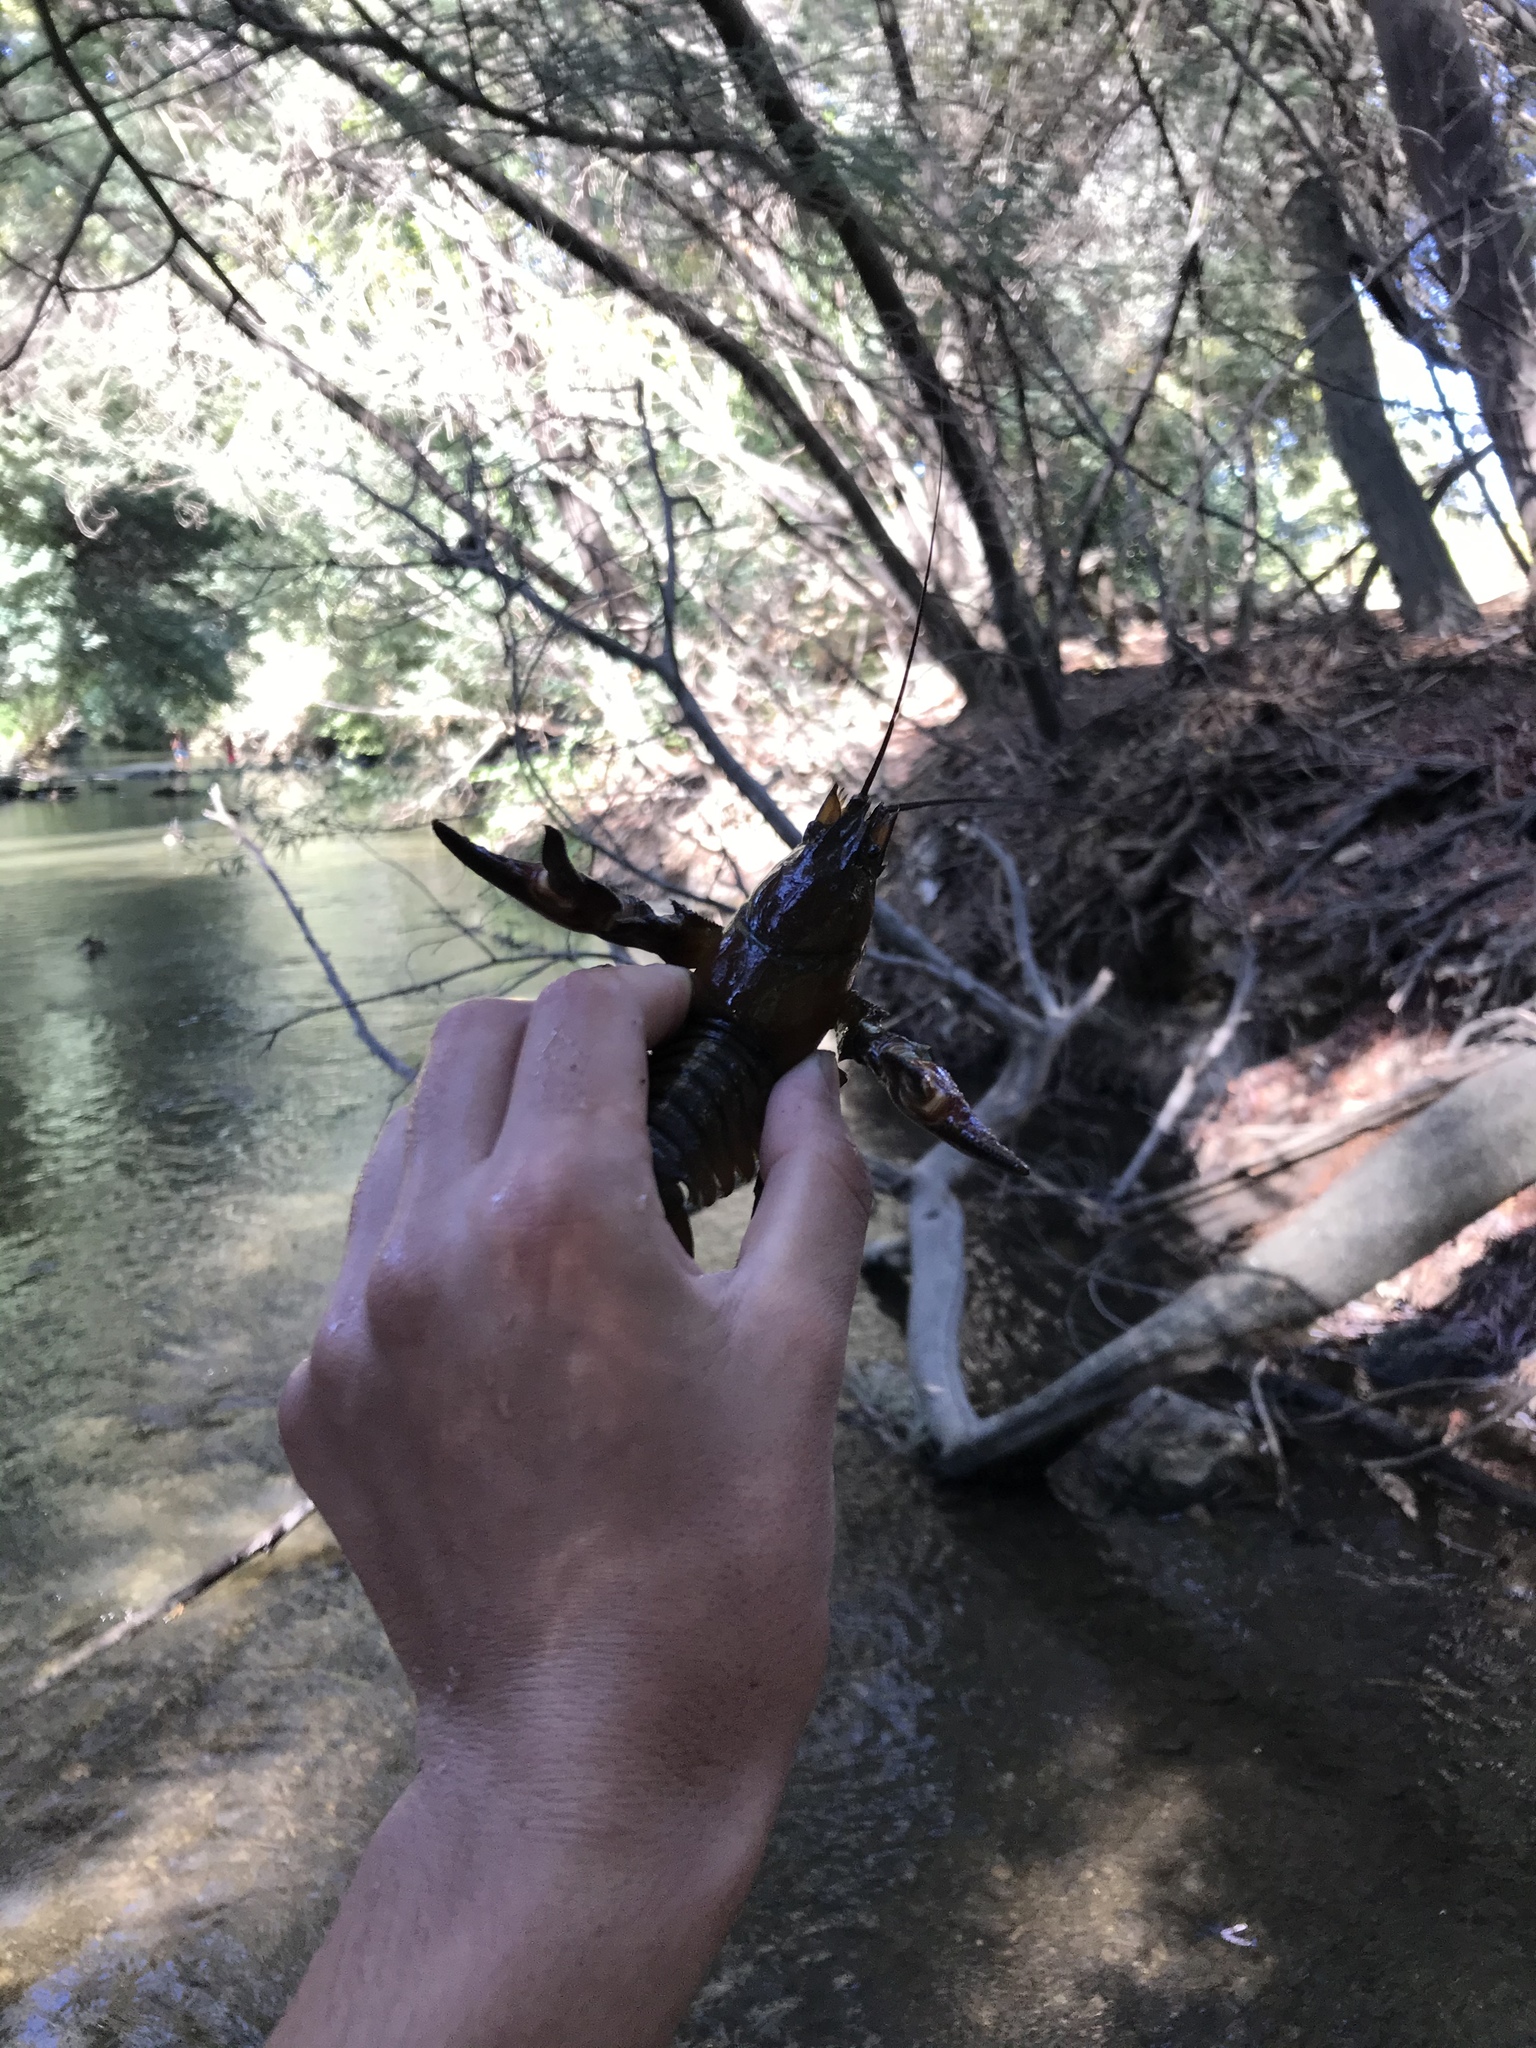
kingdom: Animalia
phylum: Arthropoda
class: Malacostraca
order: Decapoda
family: Astacidae
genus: Pacifastacus
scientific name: Pacifastacus leniusculus
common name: Signal crayfish
